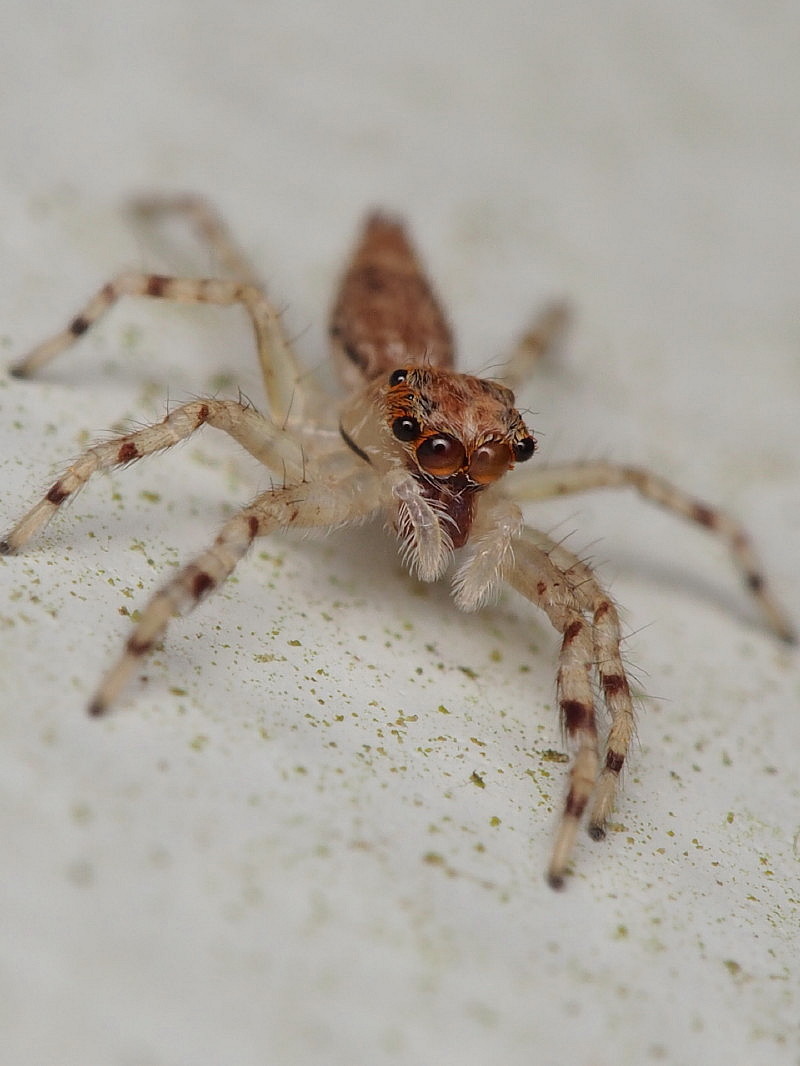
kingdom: Animalia
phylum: Arthropoda
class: Arachnida
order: Araneae
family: Salticidae
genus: Helpis
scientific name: Helpis minitabunda
